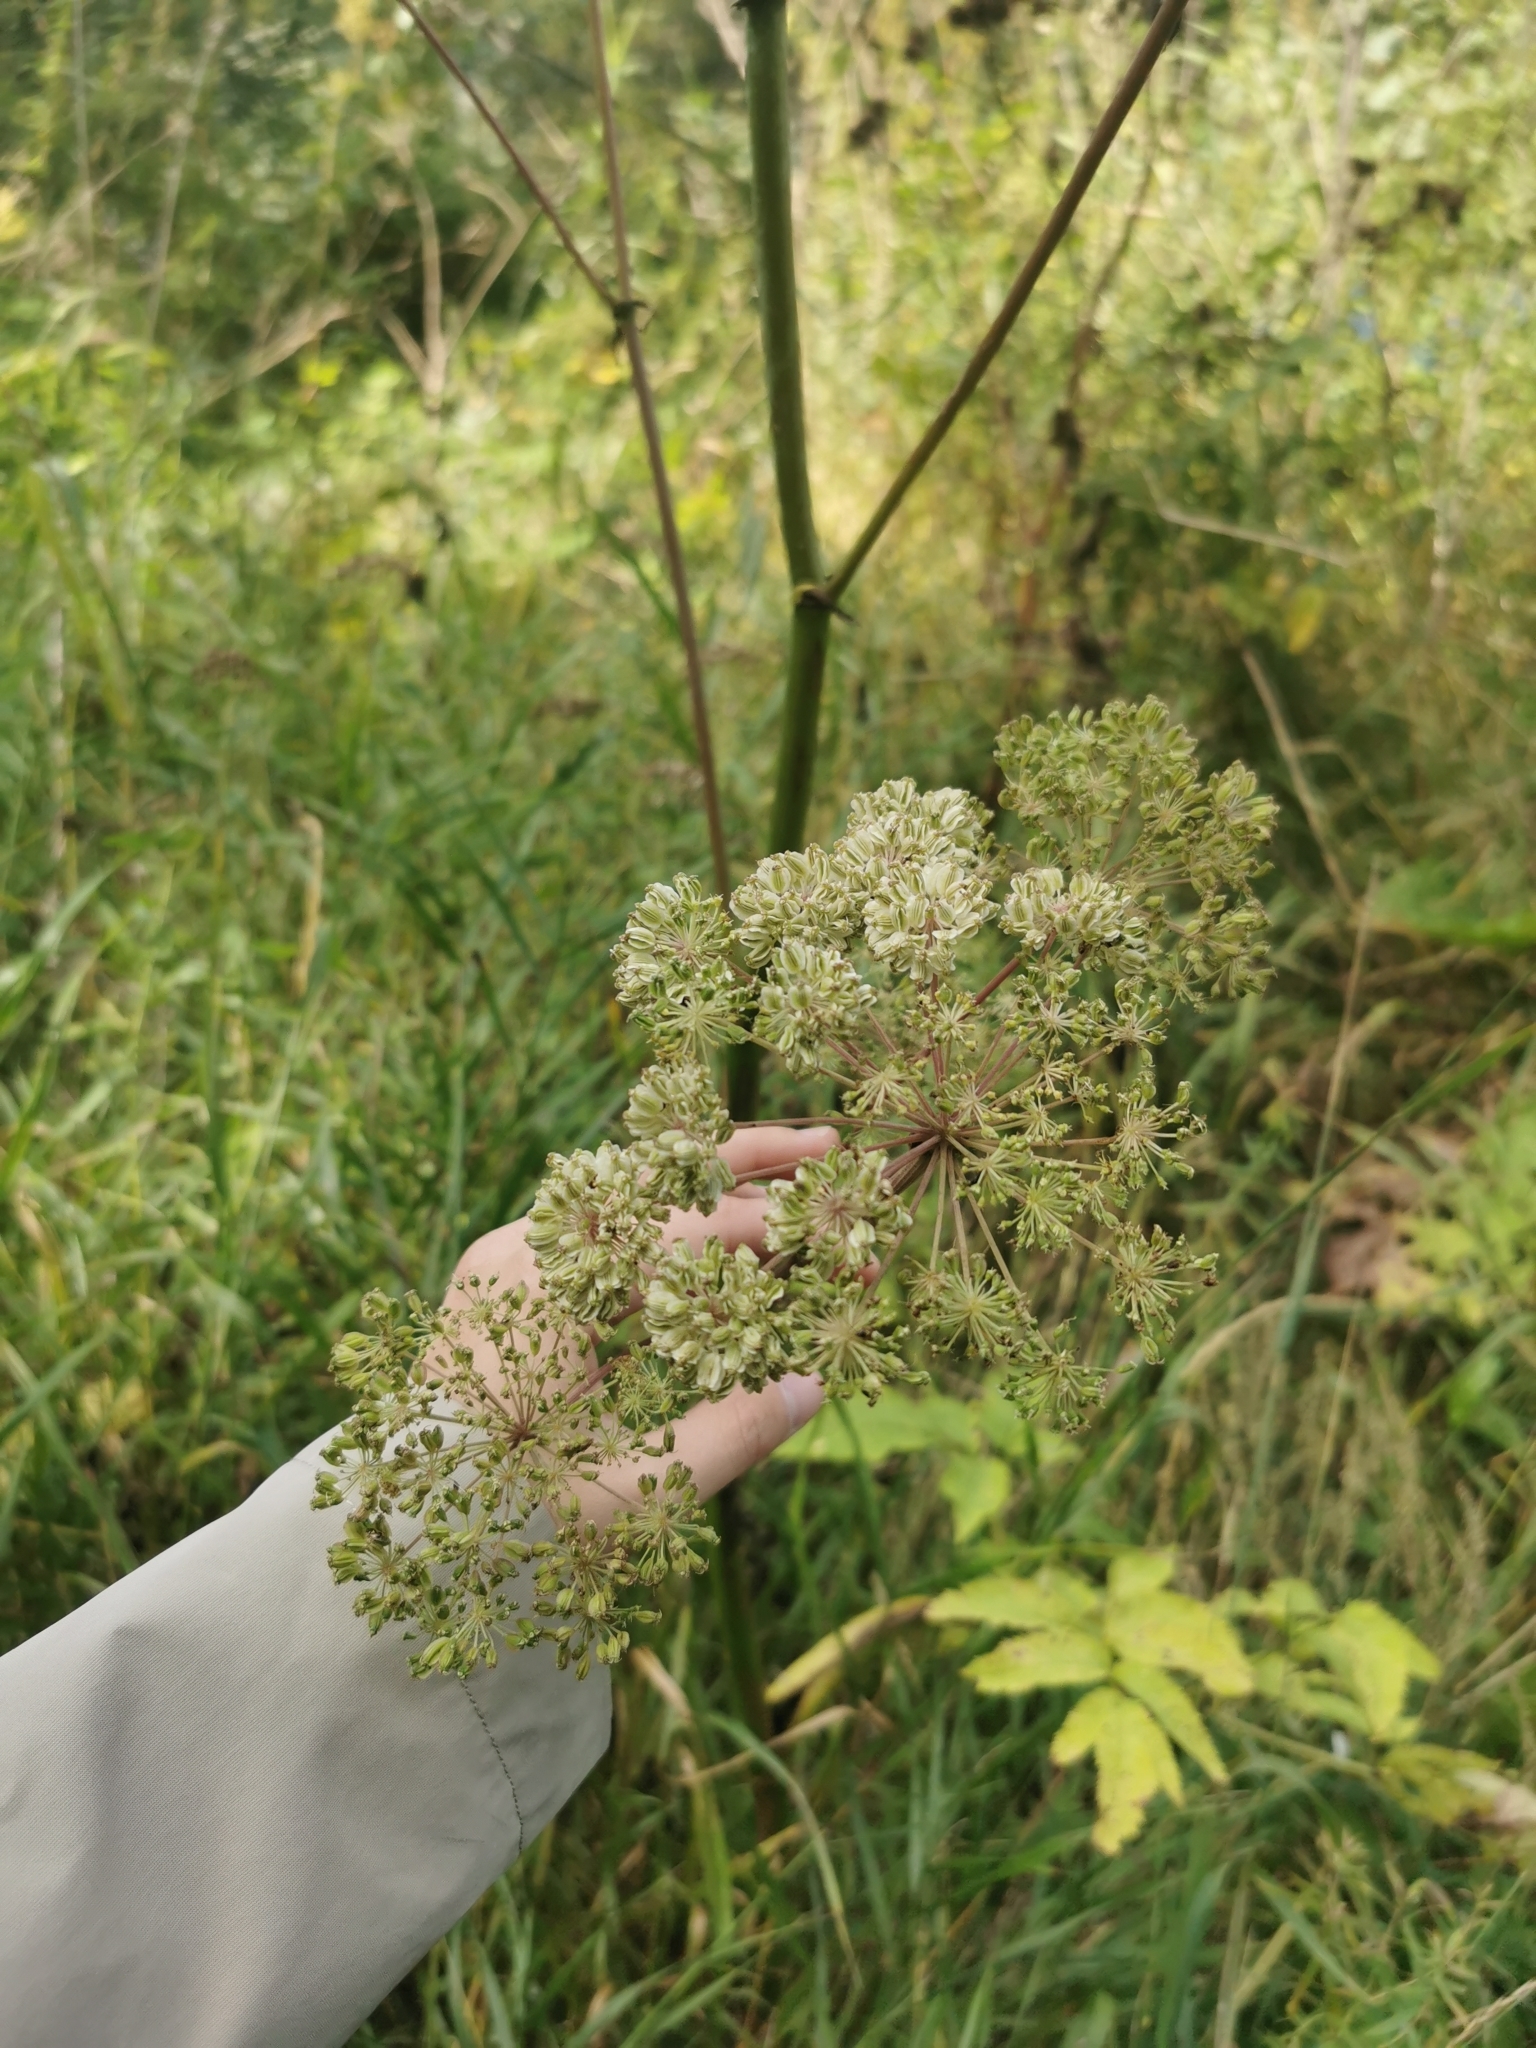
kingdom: Plantae
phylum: Tracheophyta
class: Magnoliopsida
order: Apiales
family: Apiaceae
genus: Angelica
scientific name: Angelica sylvestris
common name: Wild angelica
